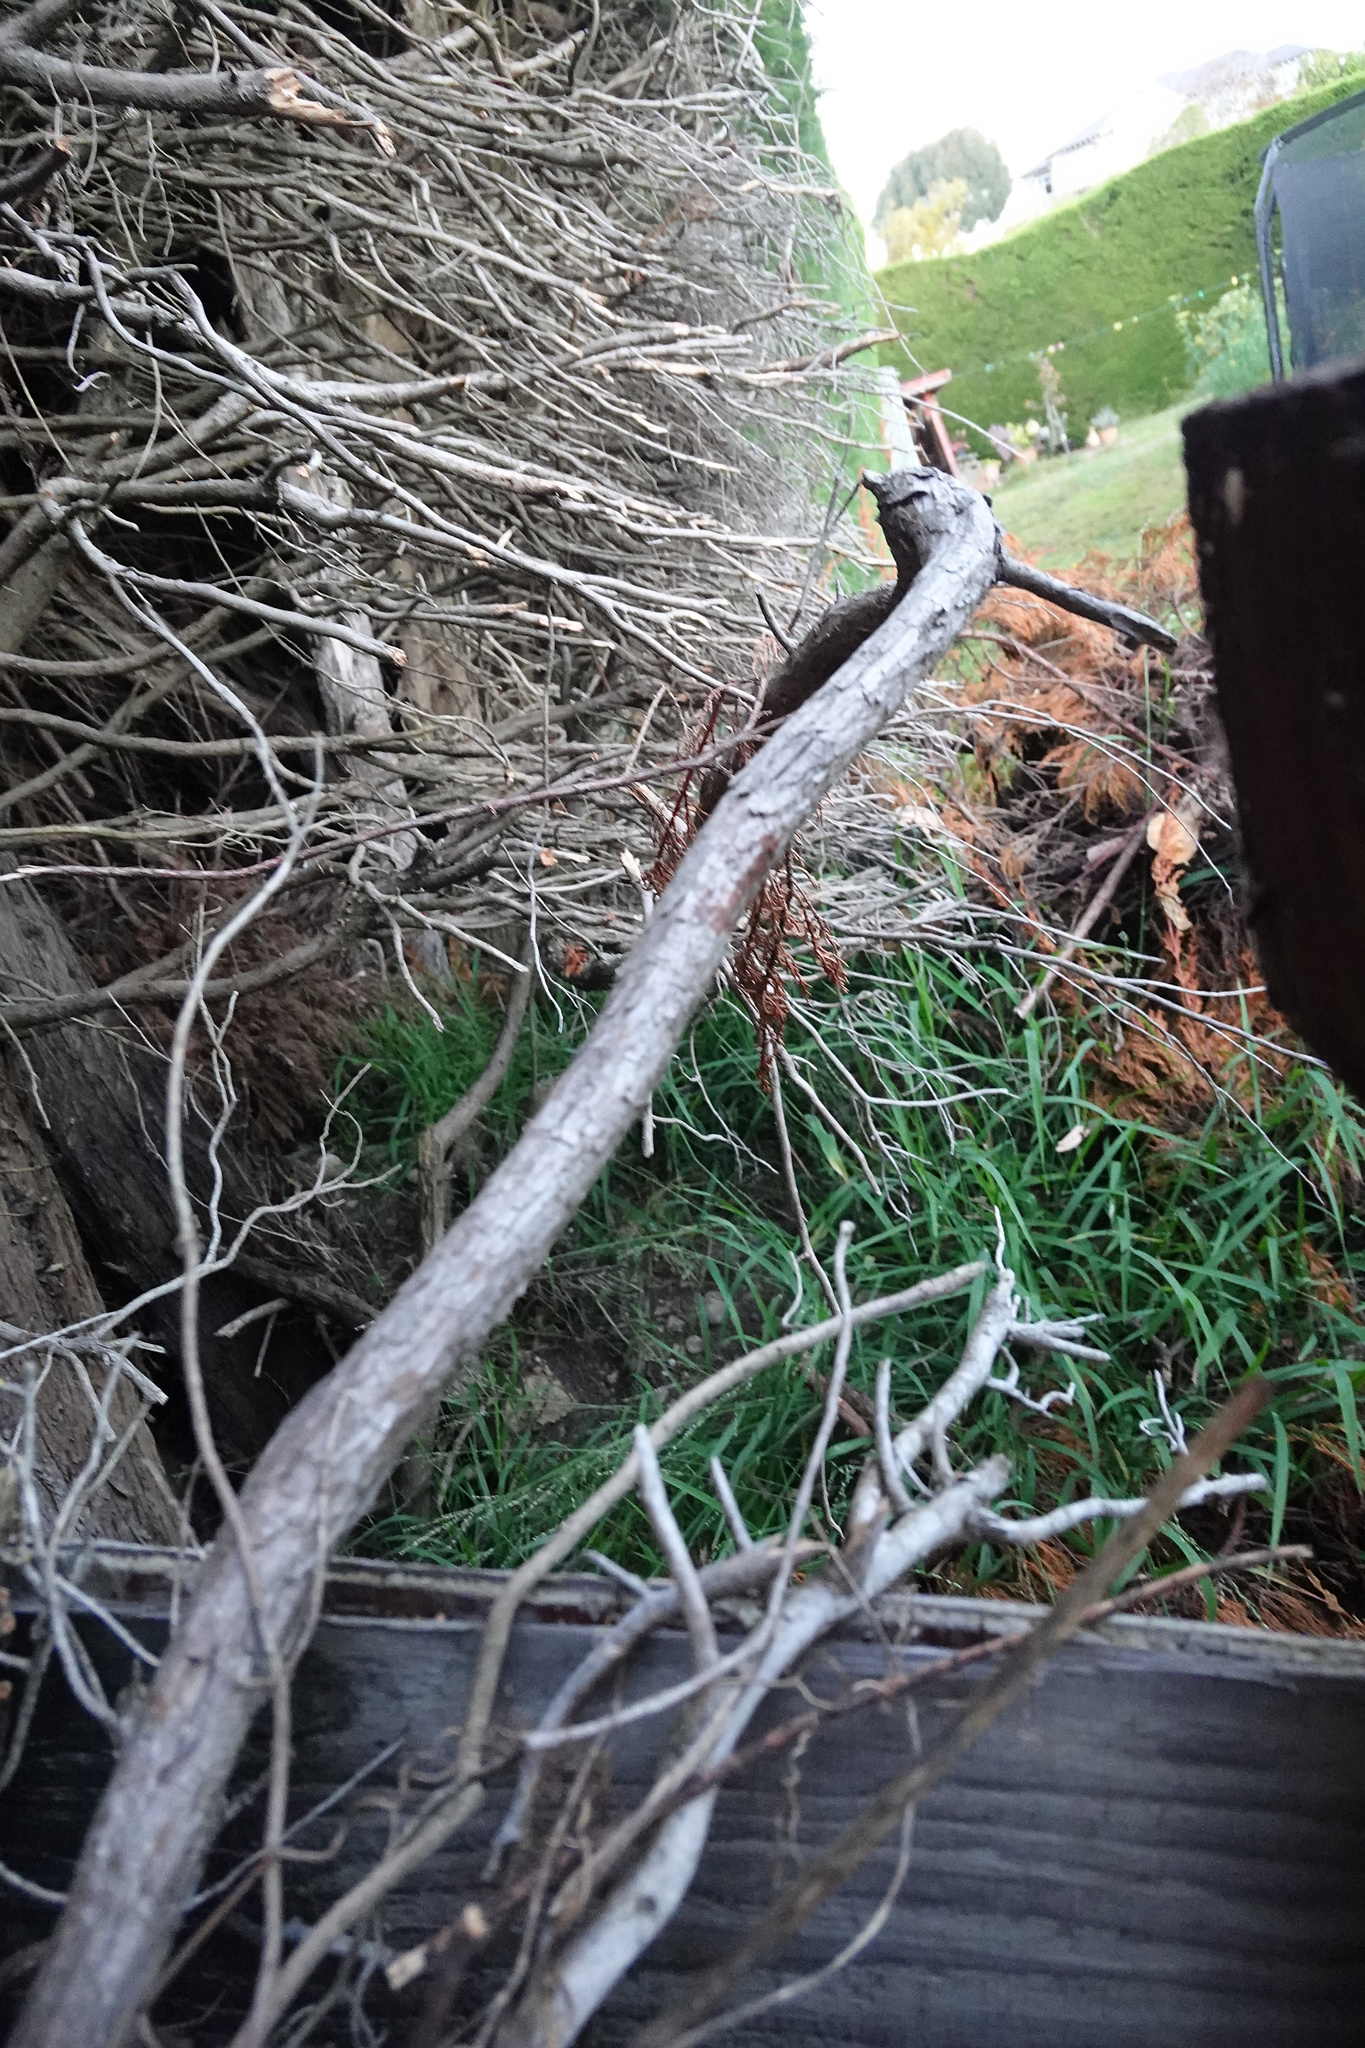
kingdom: Plantae
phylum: Tracheophyta
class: Magnoliopsida
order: Lamiales
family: Bignoniaceae
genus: Eccremocarpus
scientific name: Eccremocarpus scaber
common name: Chilean glory-flower
